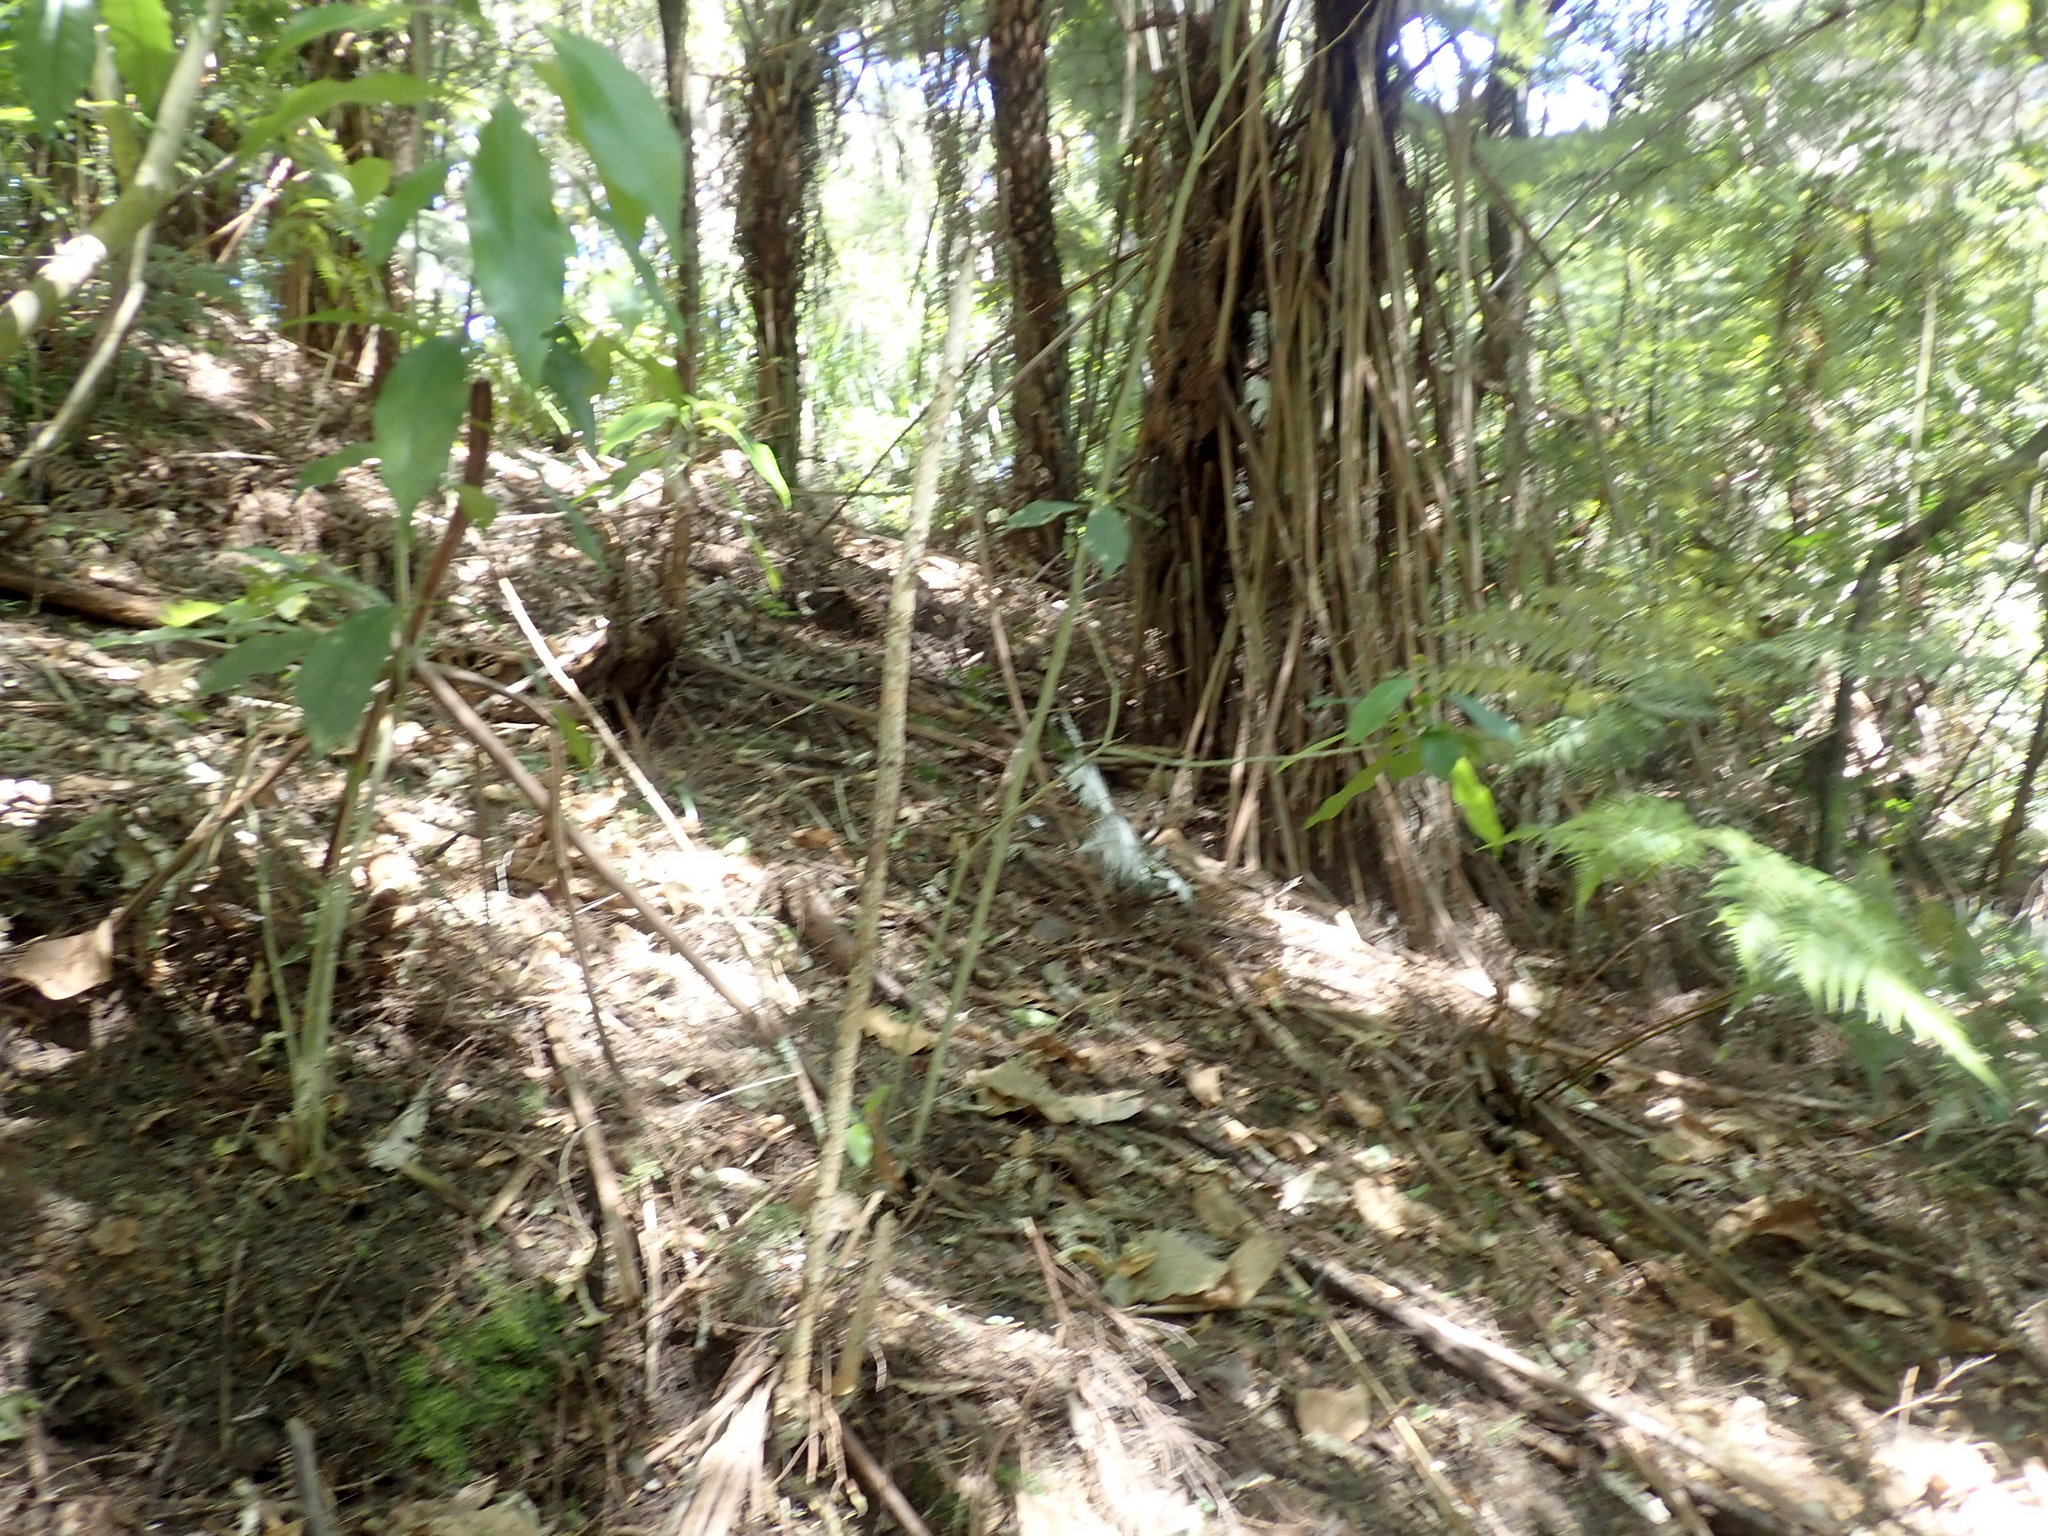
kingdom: Plantae
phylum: Tracheophyta
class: Magnoliopsida
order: Malpighiales
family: Violaceae
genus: Melicytus
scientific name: Melicytus ramiflorus
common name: Mahoe
